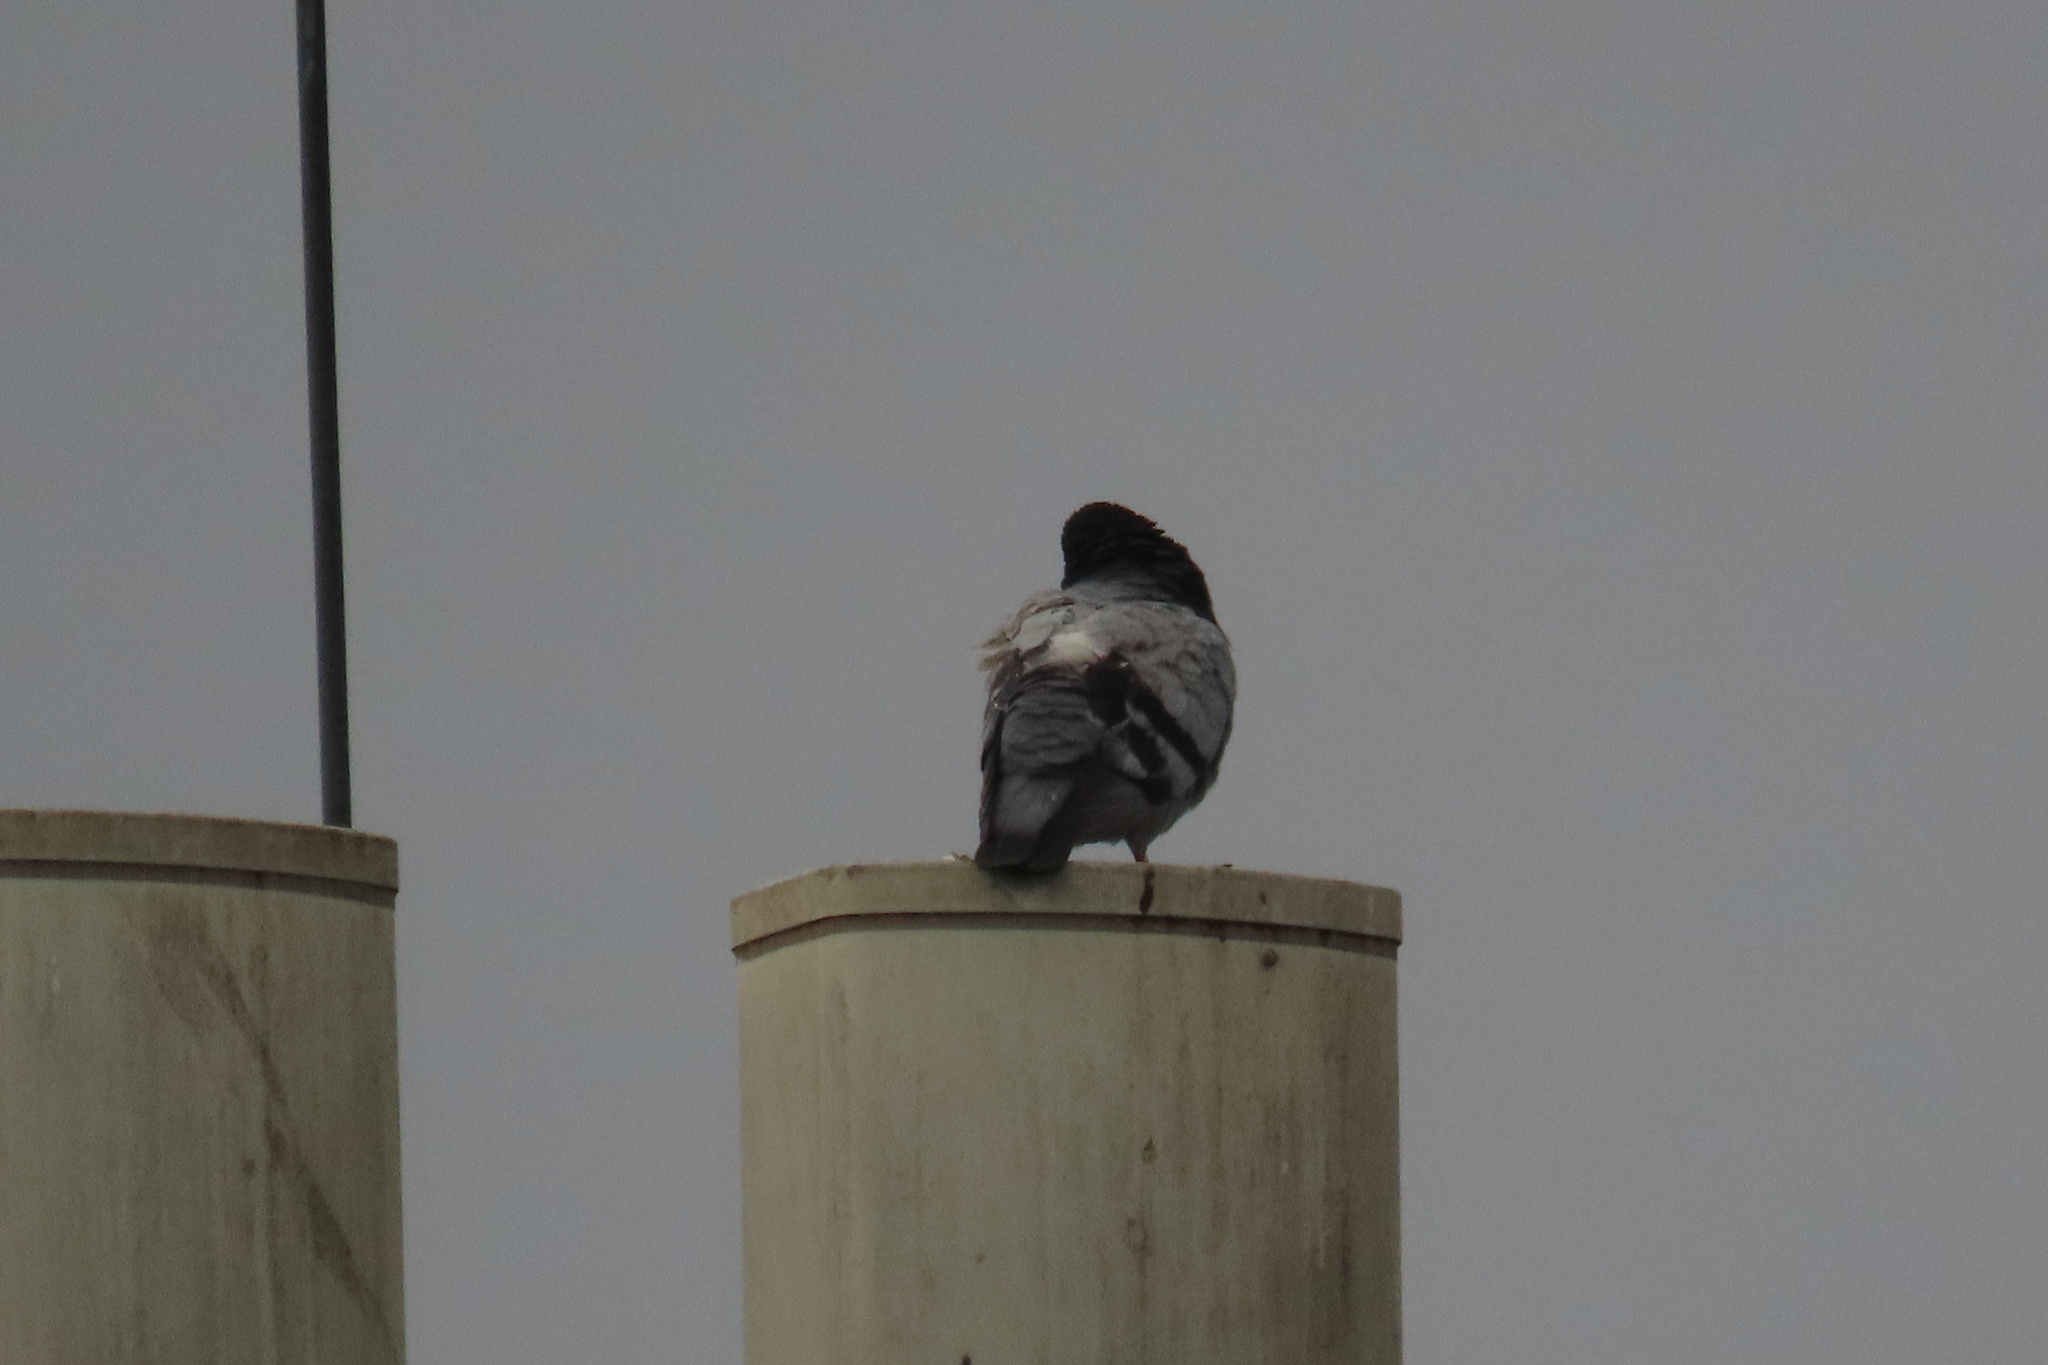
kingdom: Animalia
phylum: Chordata
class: Aves
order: Columbiformes
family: Columbidae
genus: Columba
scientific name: Columba livia
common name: Rock pigeon
